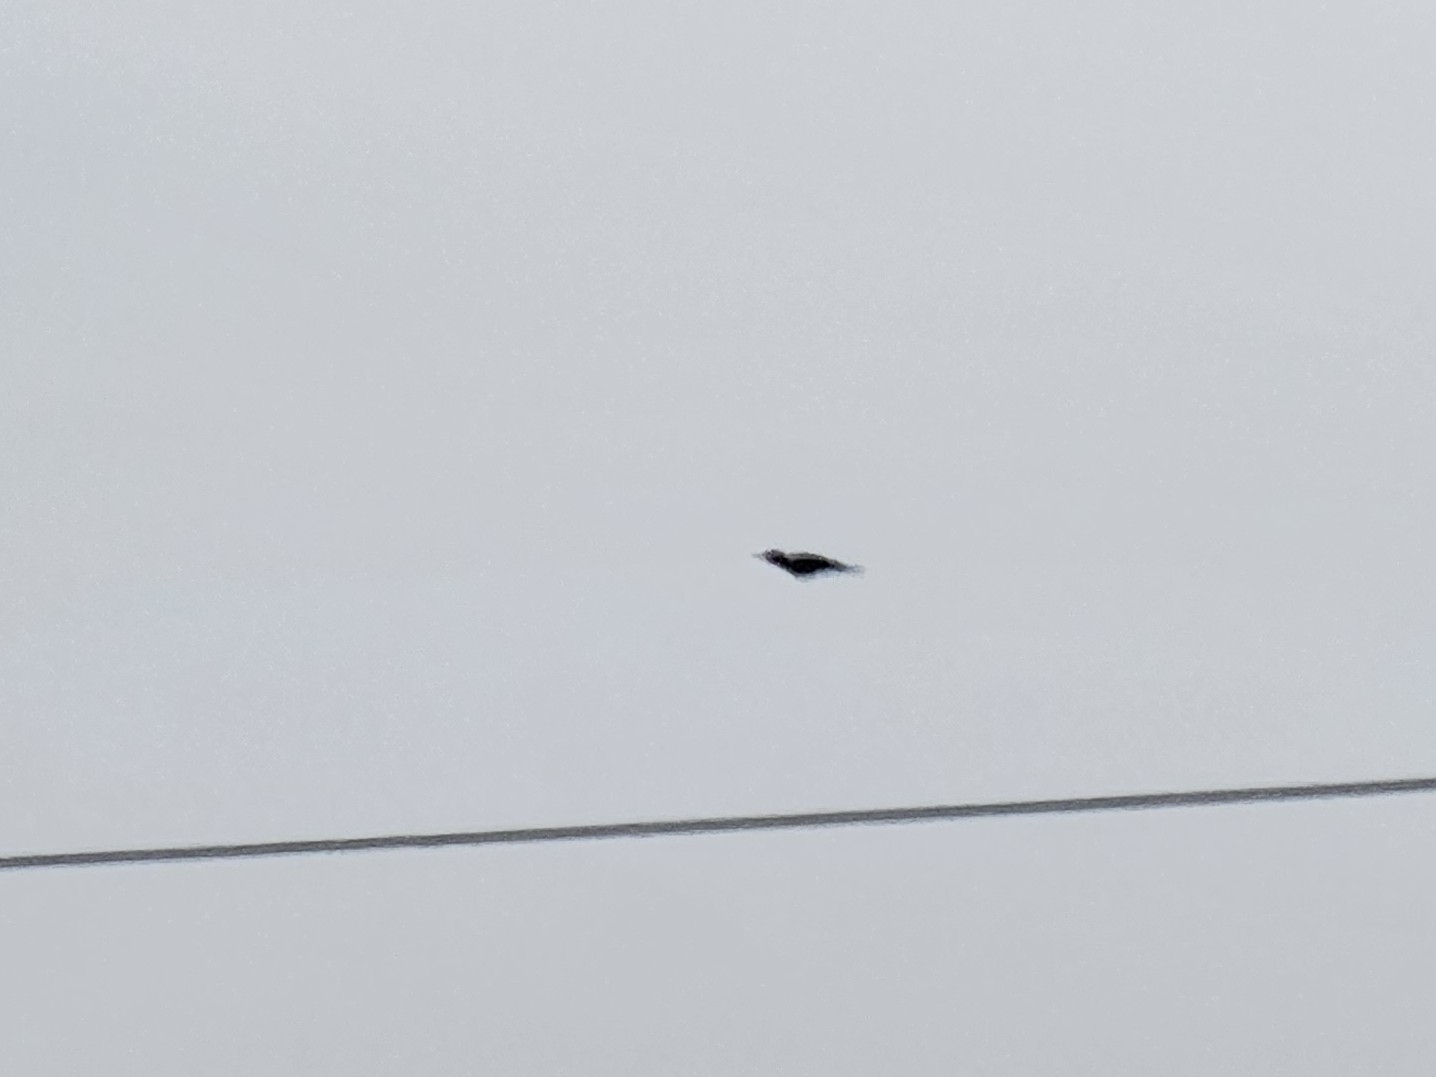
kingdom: Animalia
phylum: Chordata
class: Aves
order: Piciformes
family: Picidae
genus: Dryocopus
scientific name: Dryocopus martius
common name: Black woodpecker
